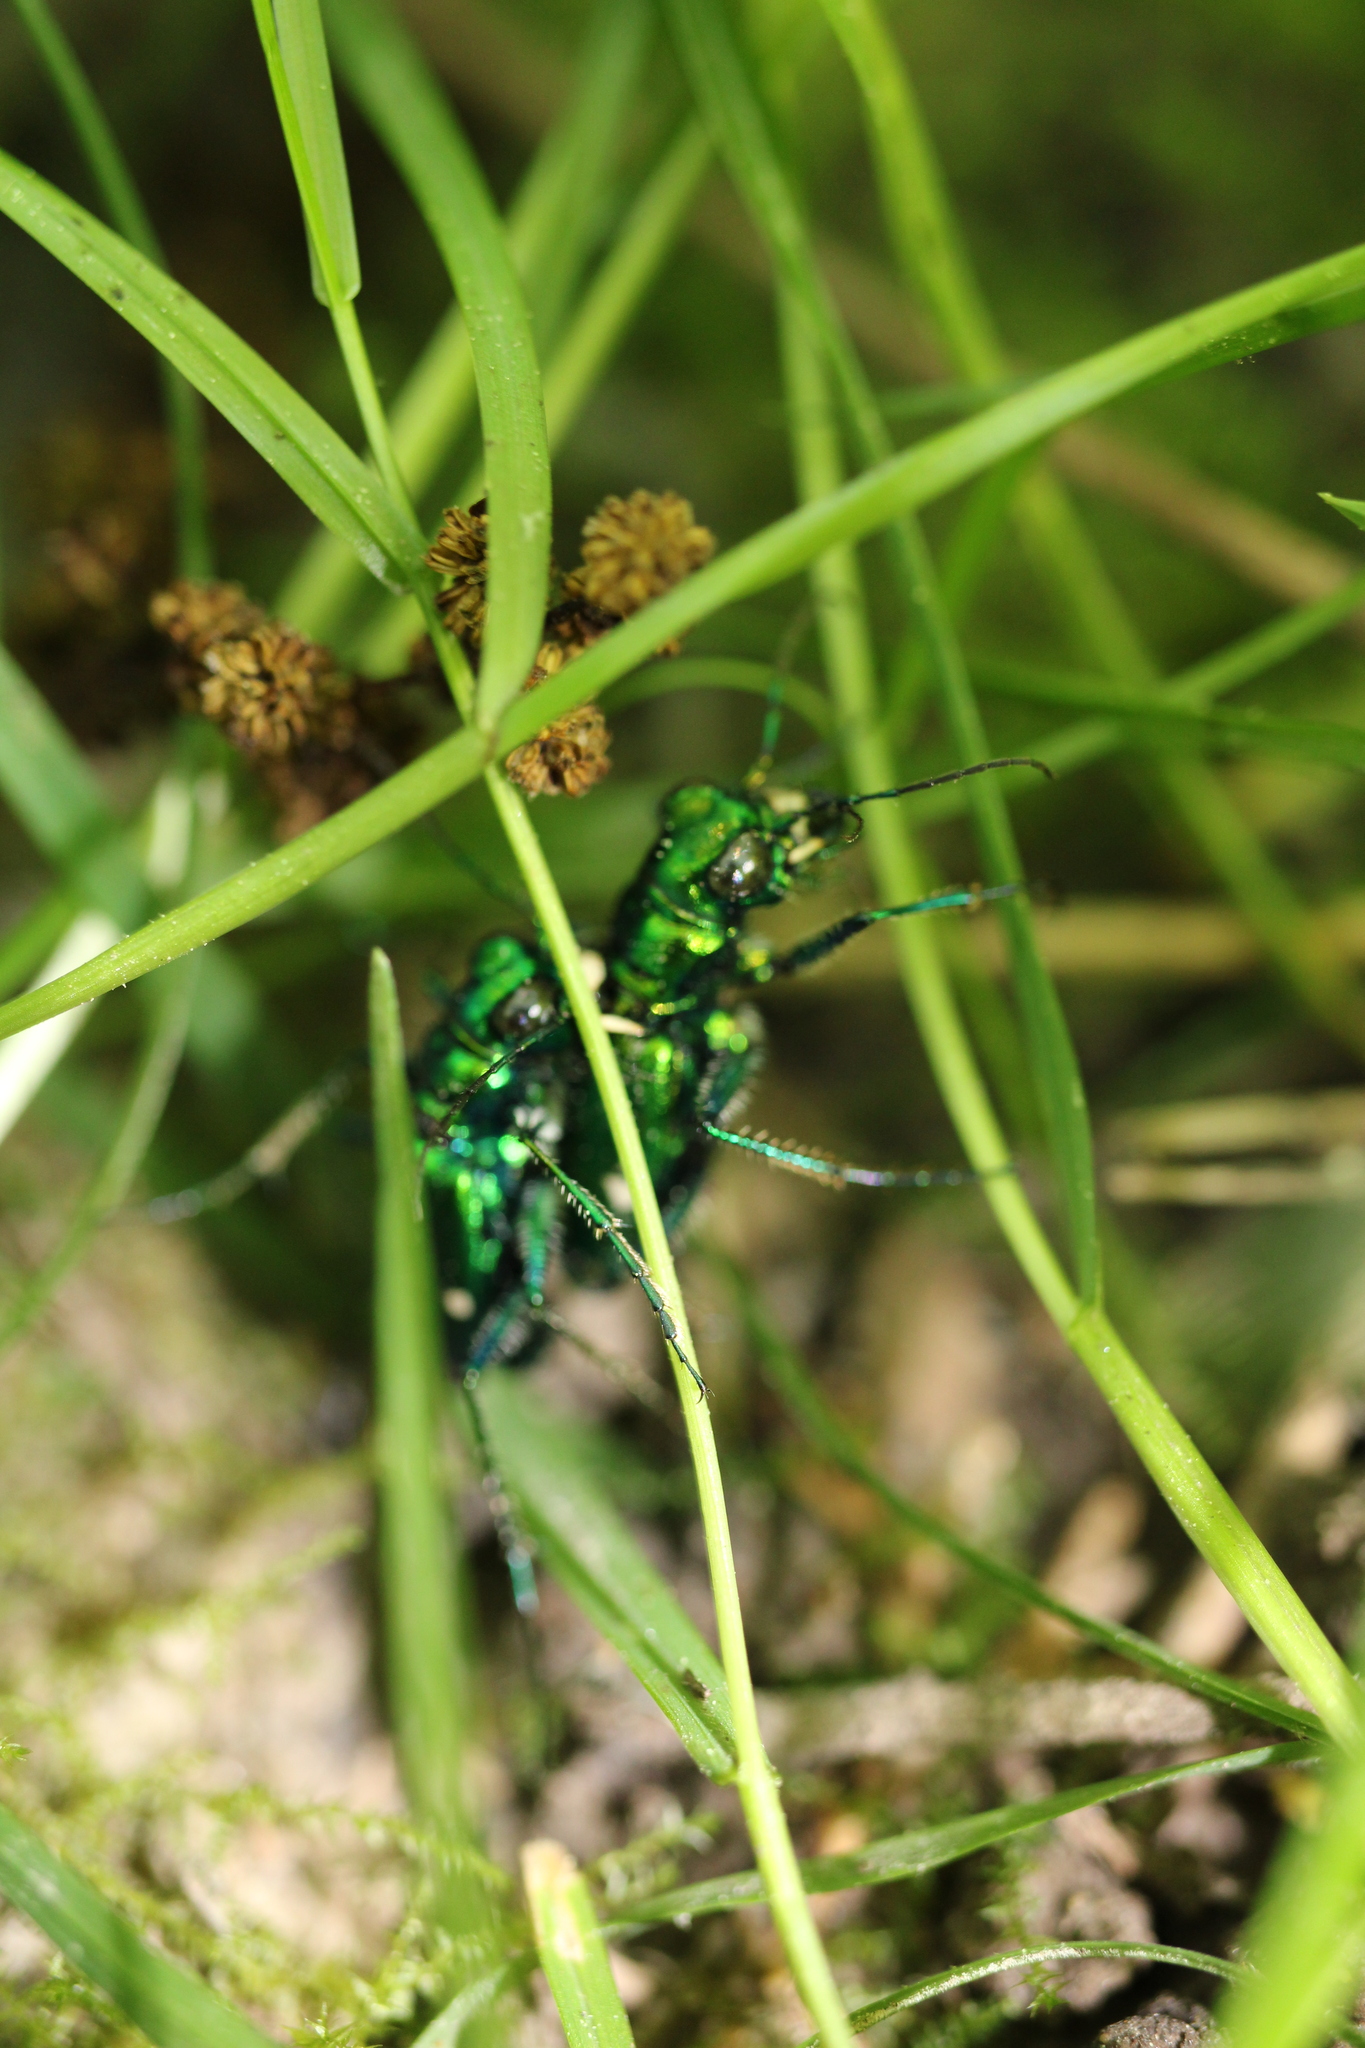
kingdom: Animalia
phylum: Arthropoda
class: Insecta
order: Coleoptera
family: Carabidae
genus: Cicindela
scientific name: Cicindela sexguttata
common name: Six-spotted tiger beetle
